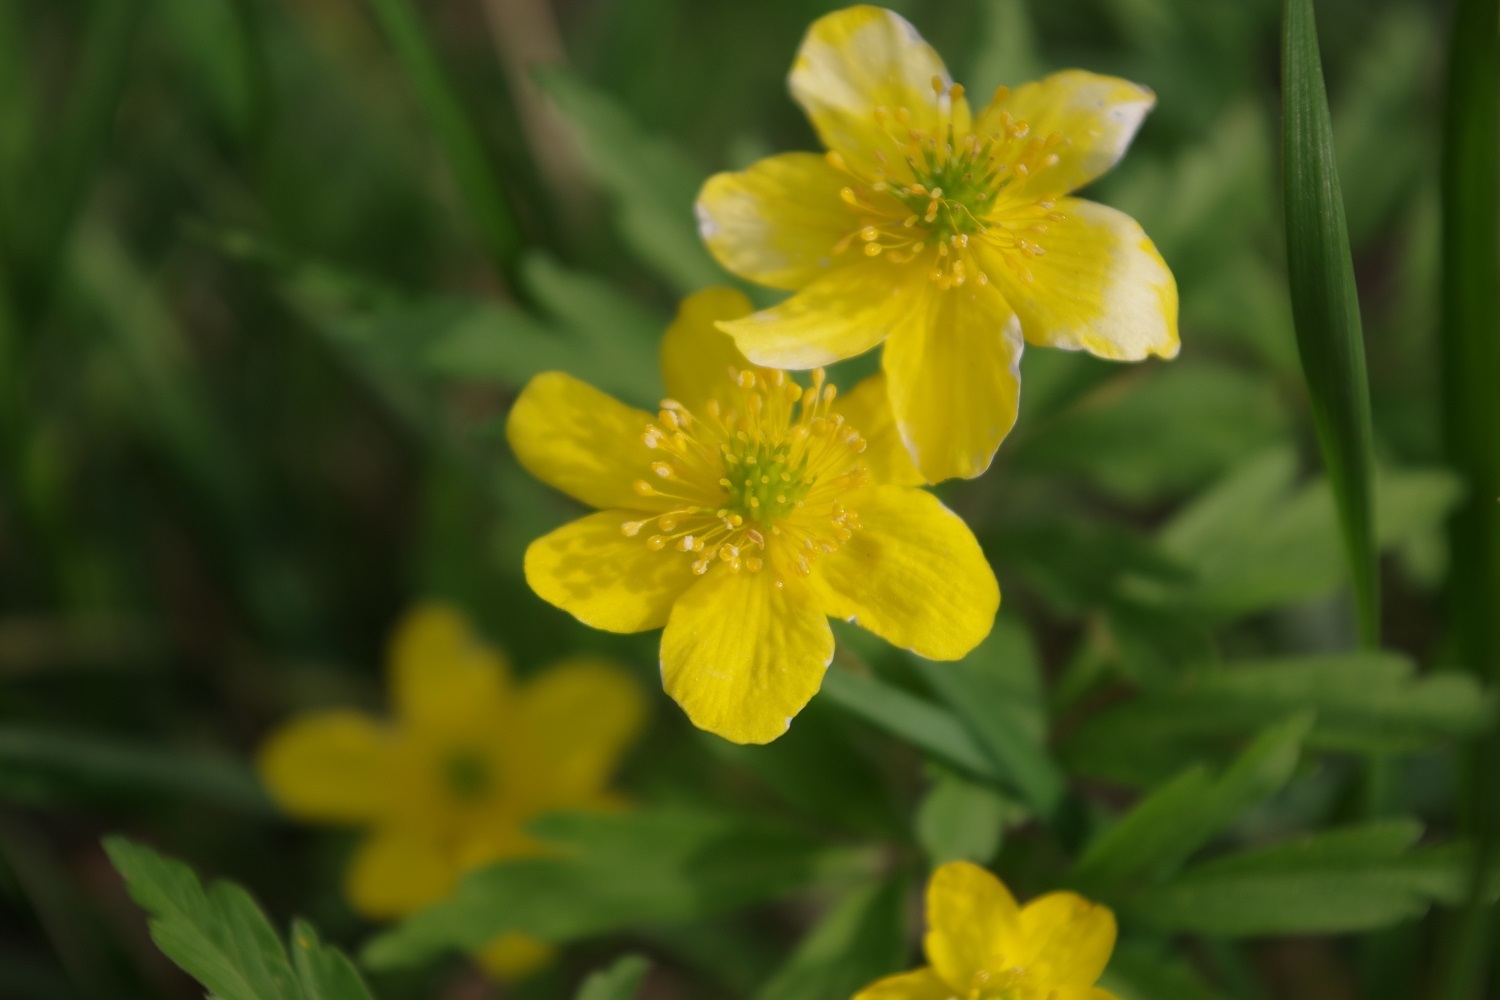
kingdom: Plantae
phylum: Tracheophyta
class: Magnoliopsida
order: Ranunculales
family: Ranunculaceae
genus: Anemone
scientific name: Anemone ranunculoides
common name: Yellow anemone
